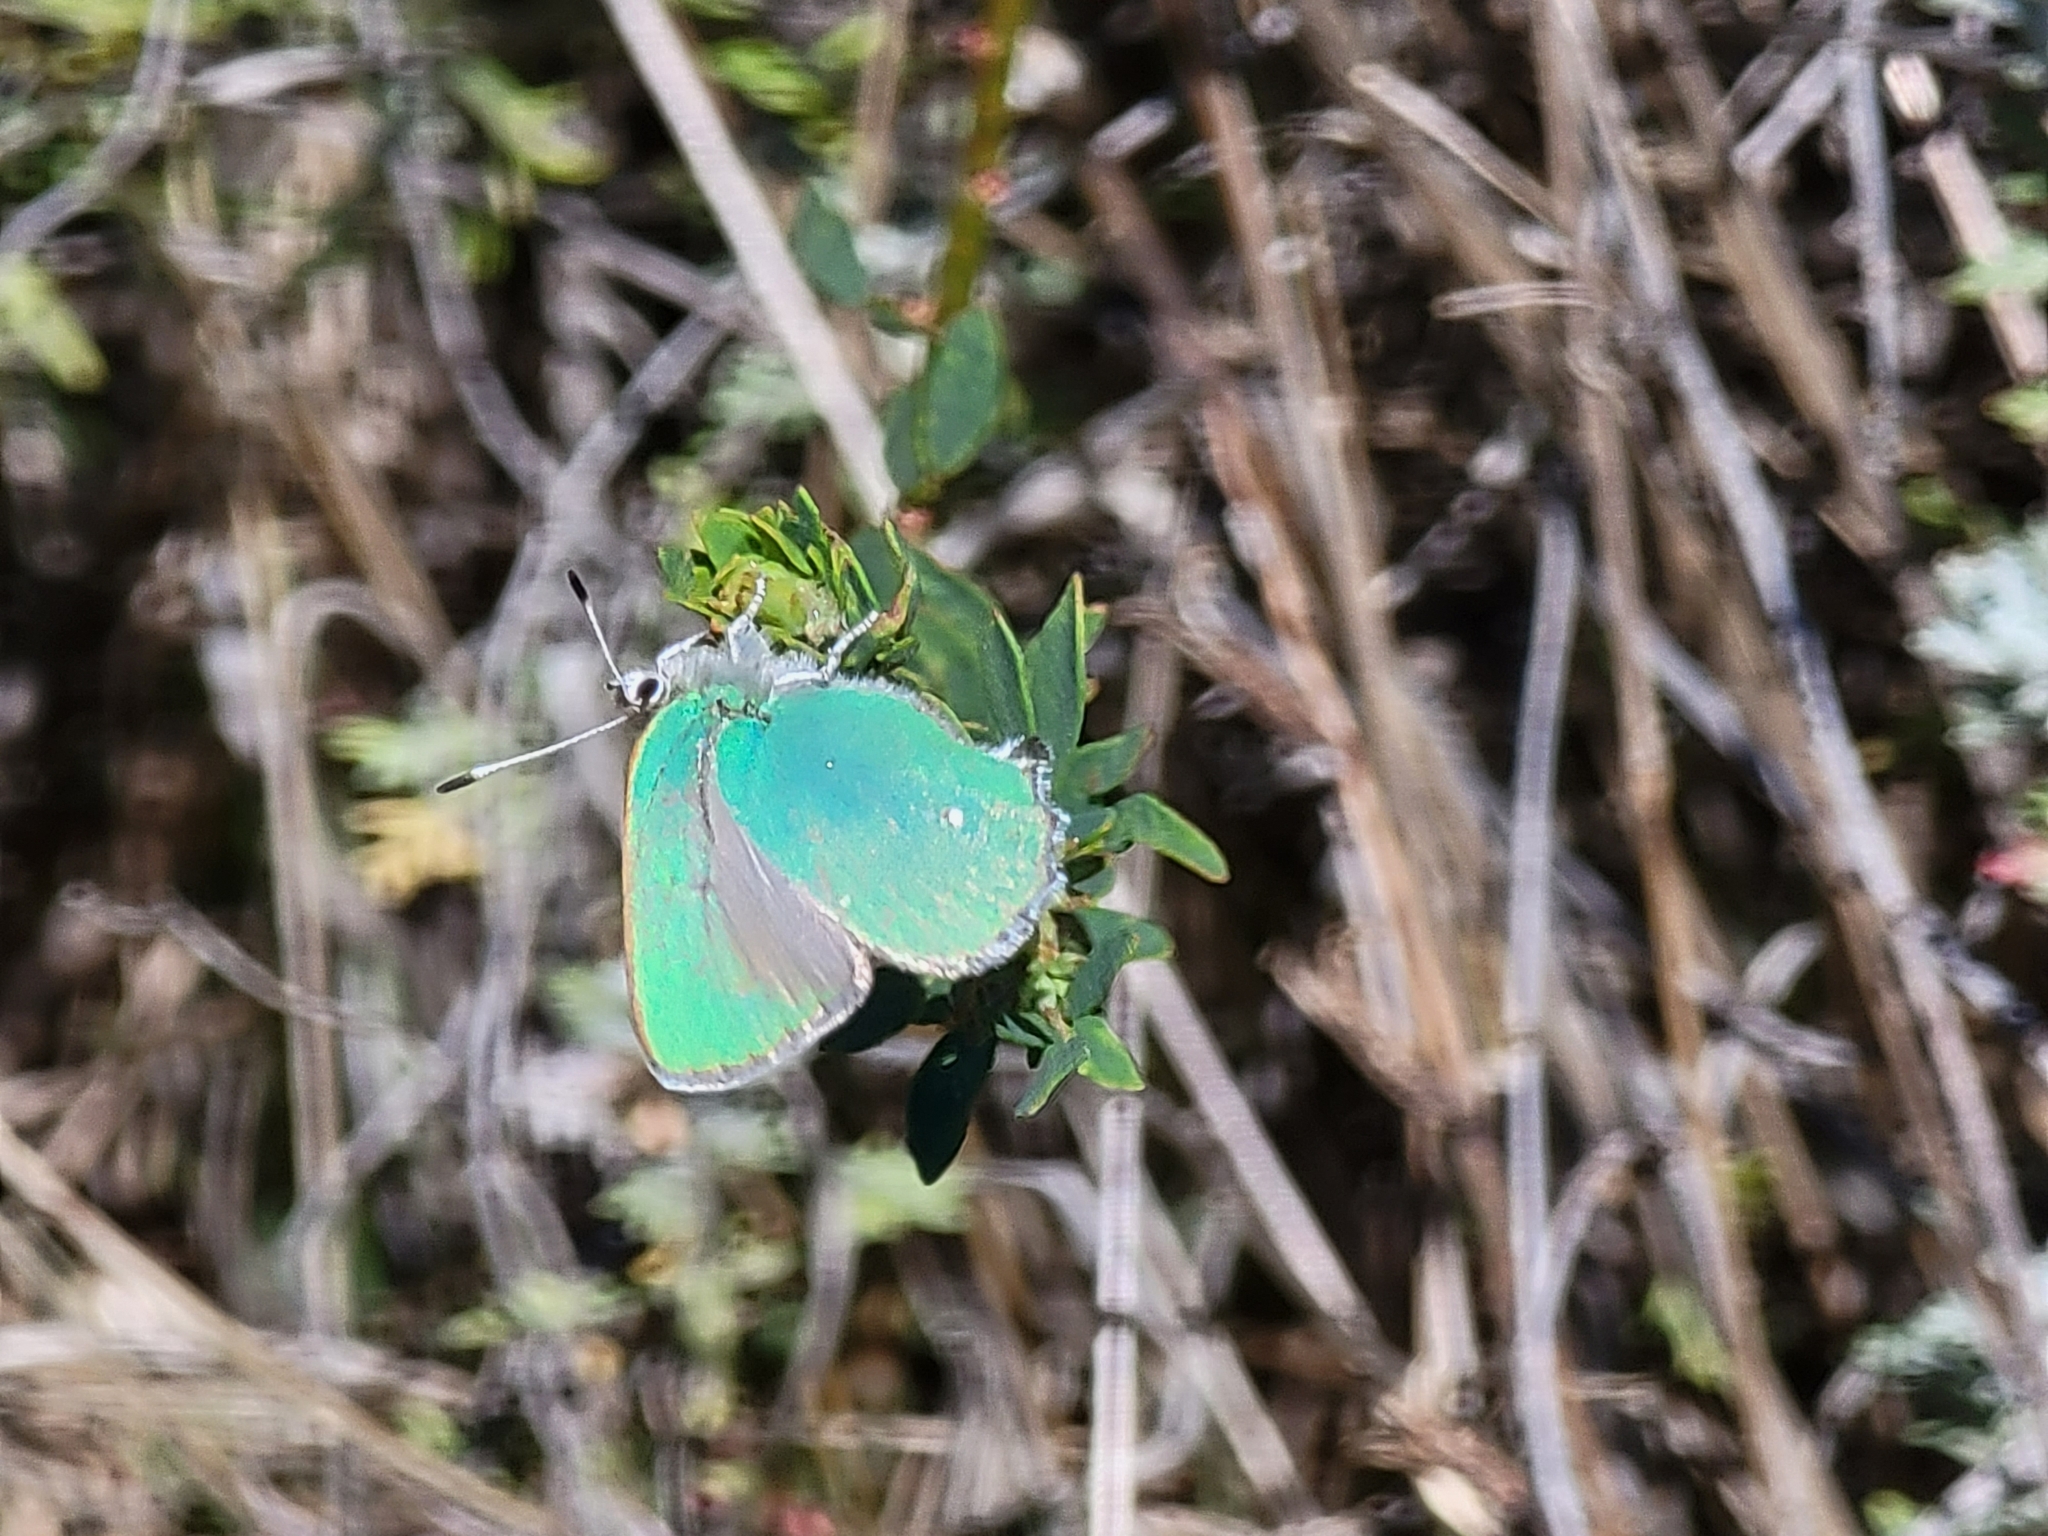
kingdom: Animalia
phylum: Arthropoda
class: Insecta
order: Lepidoptera
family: Lycaenidae
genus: Callophrys
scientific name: Callophrys dumetorum
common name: Bramble hairstreak
